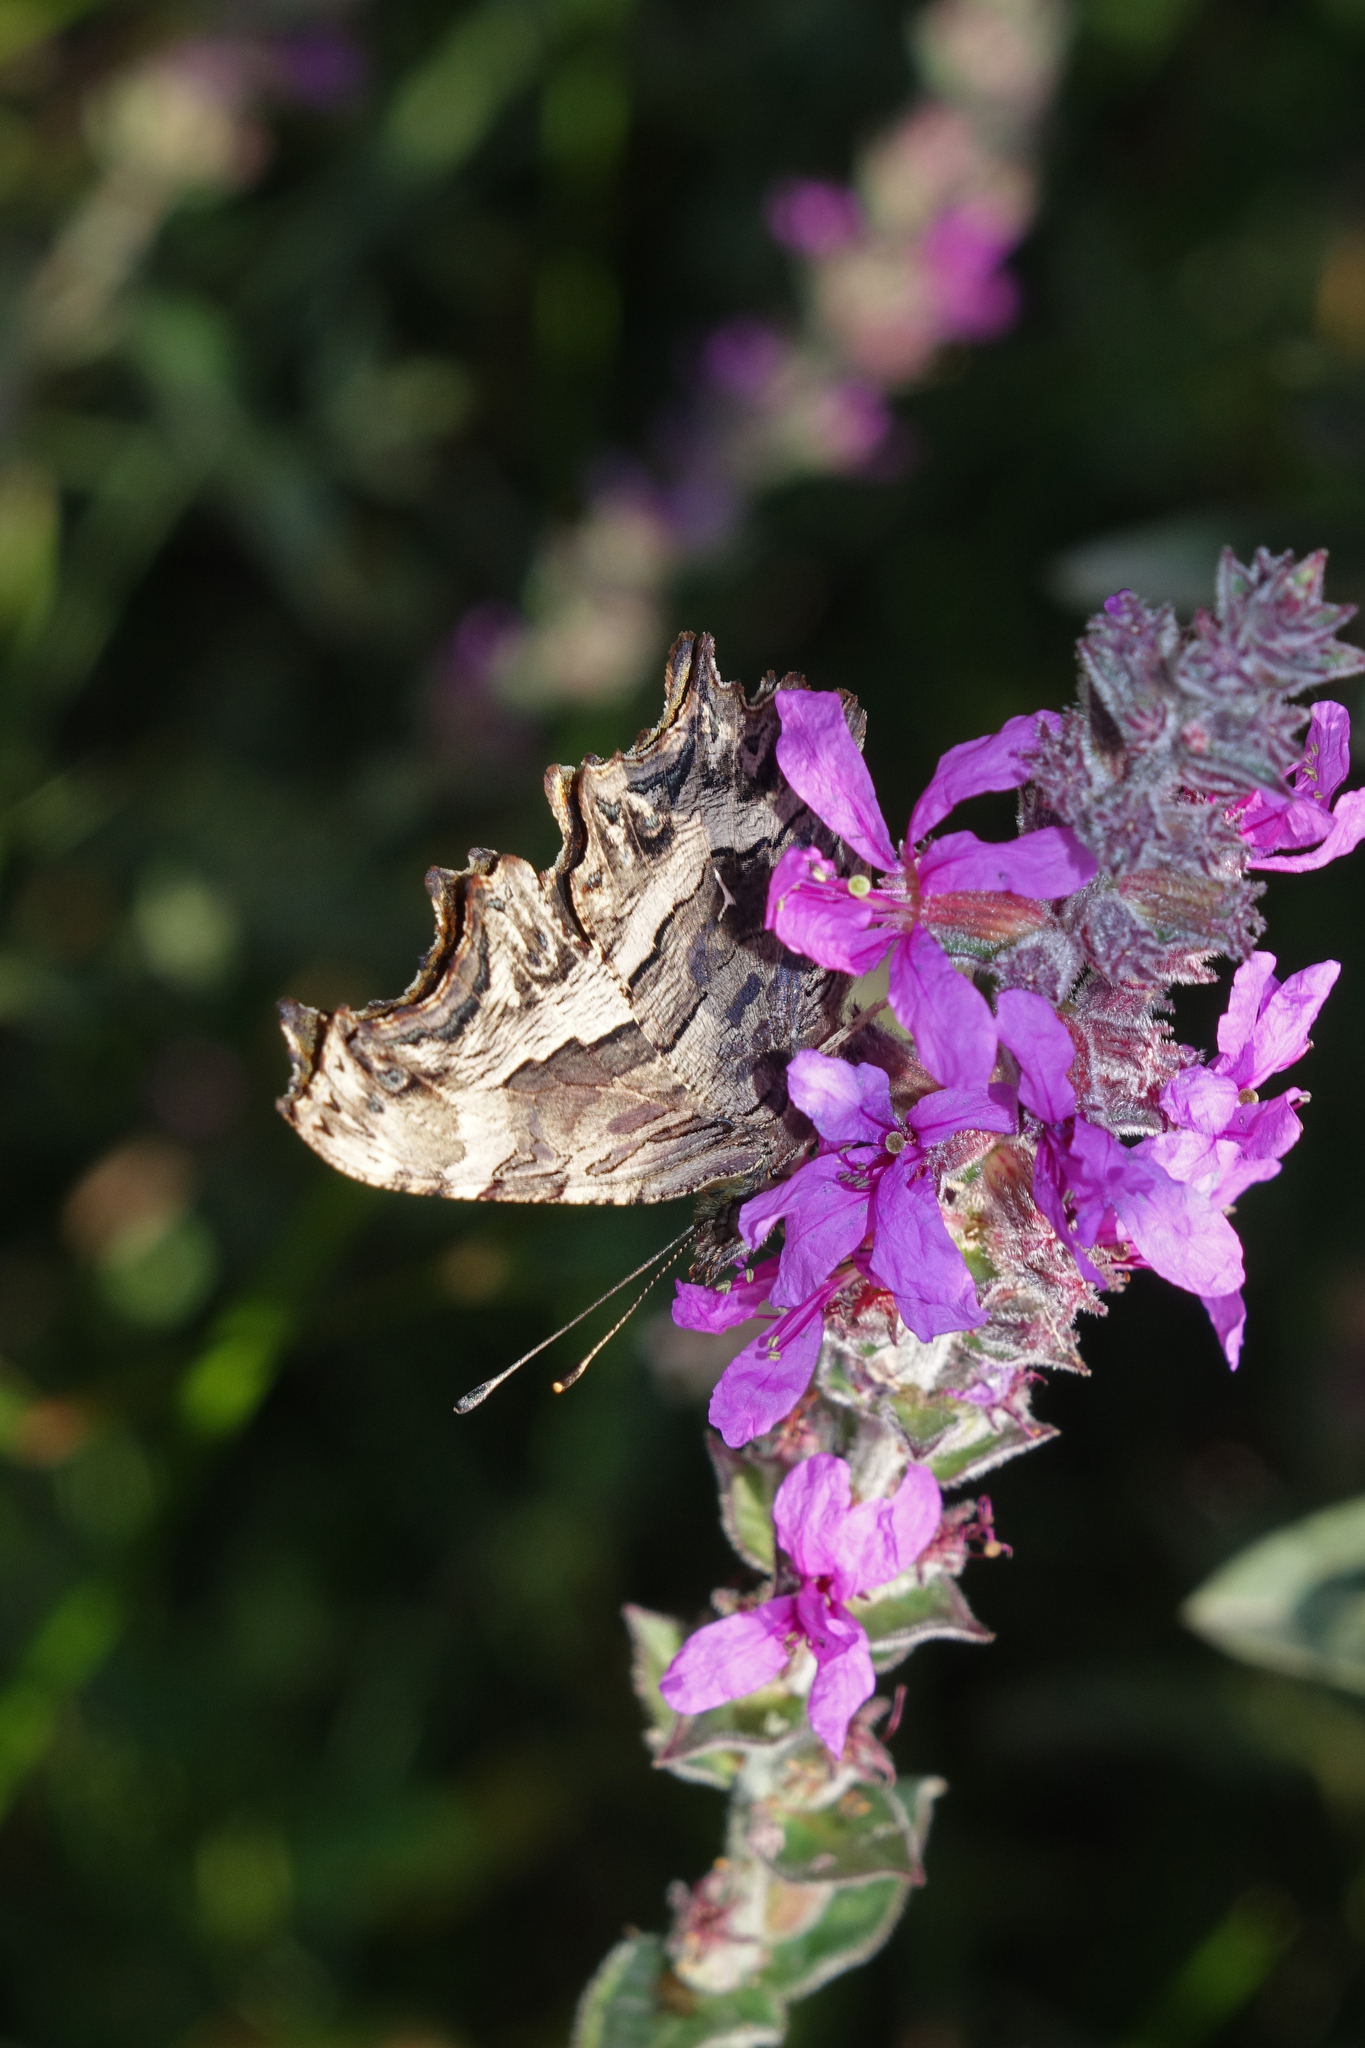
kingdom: Animalia
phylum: Arthropoda
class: Insecta
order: Lepidoptera
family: Nymphalidae
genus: Polygonia
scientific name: Polygonia egea
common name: Southern comma
